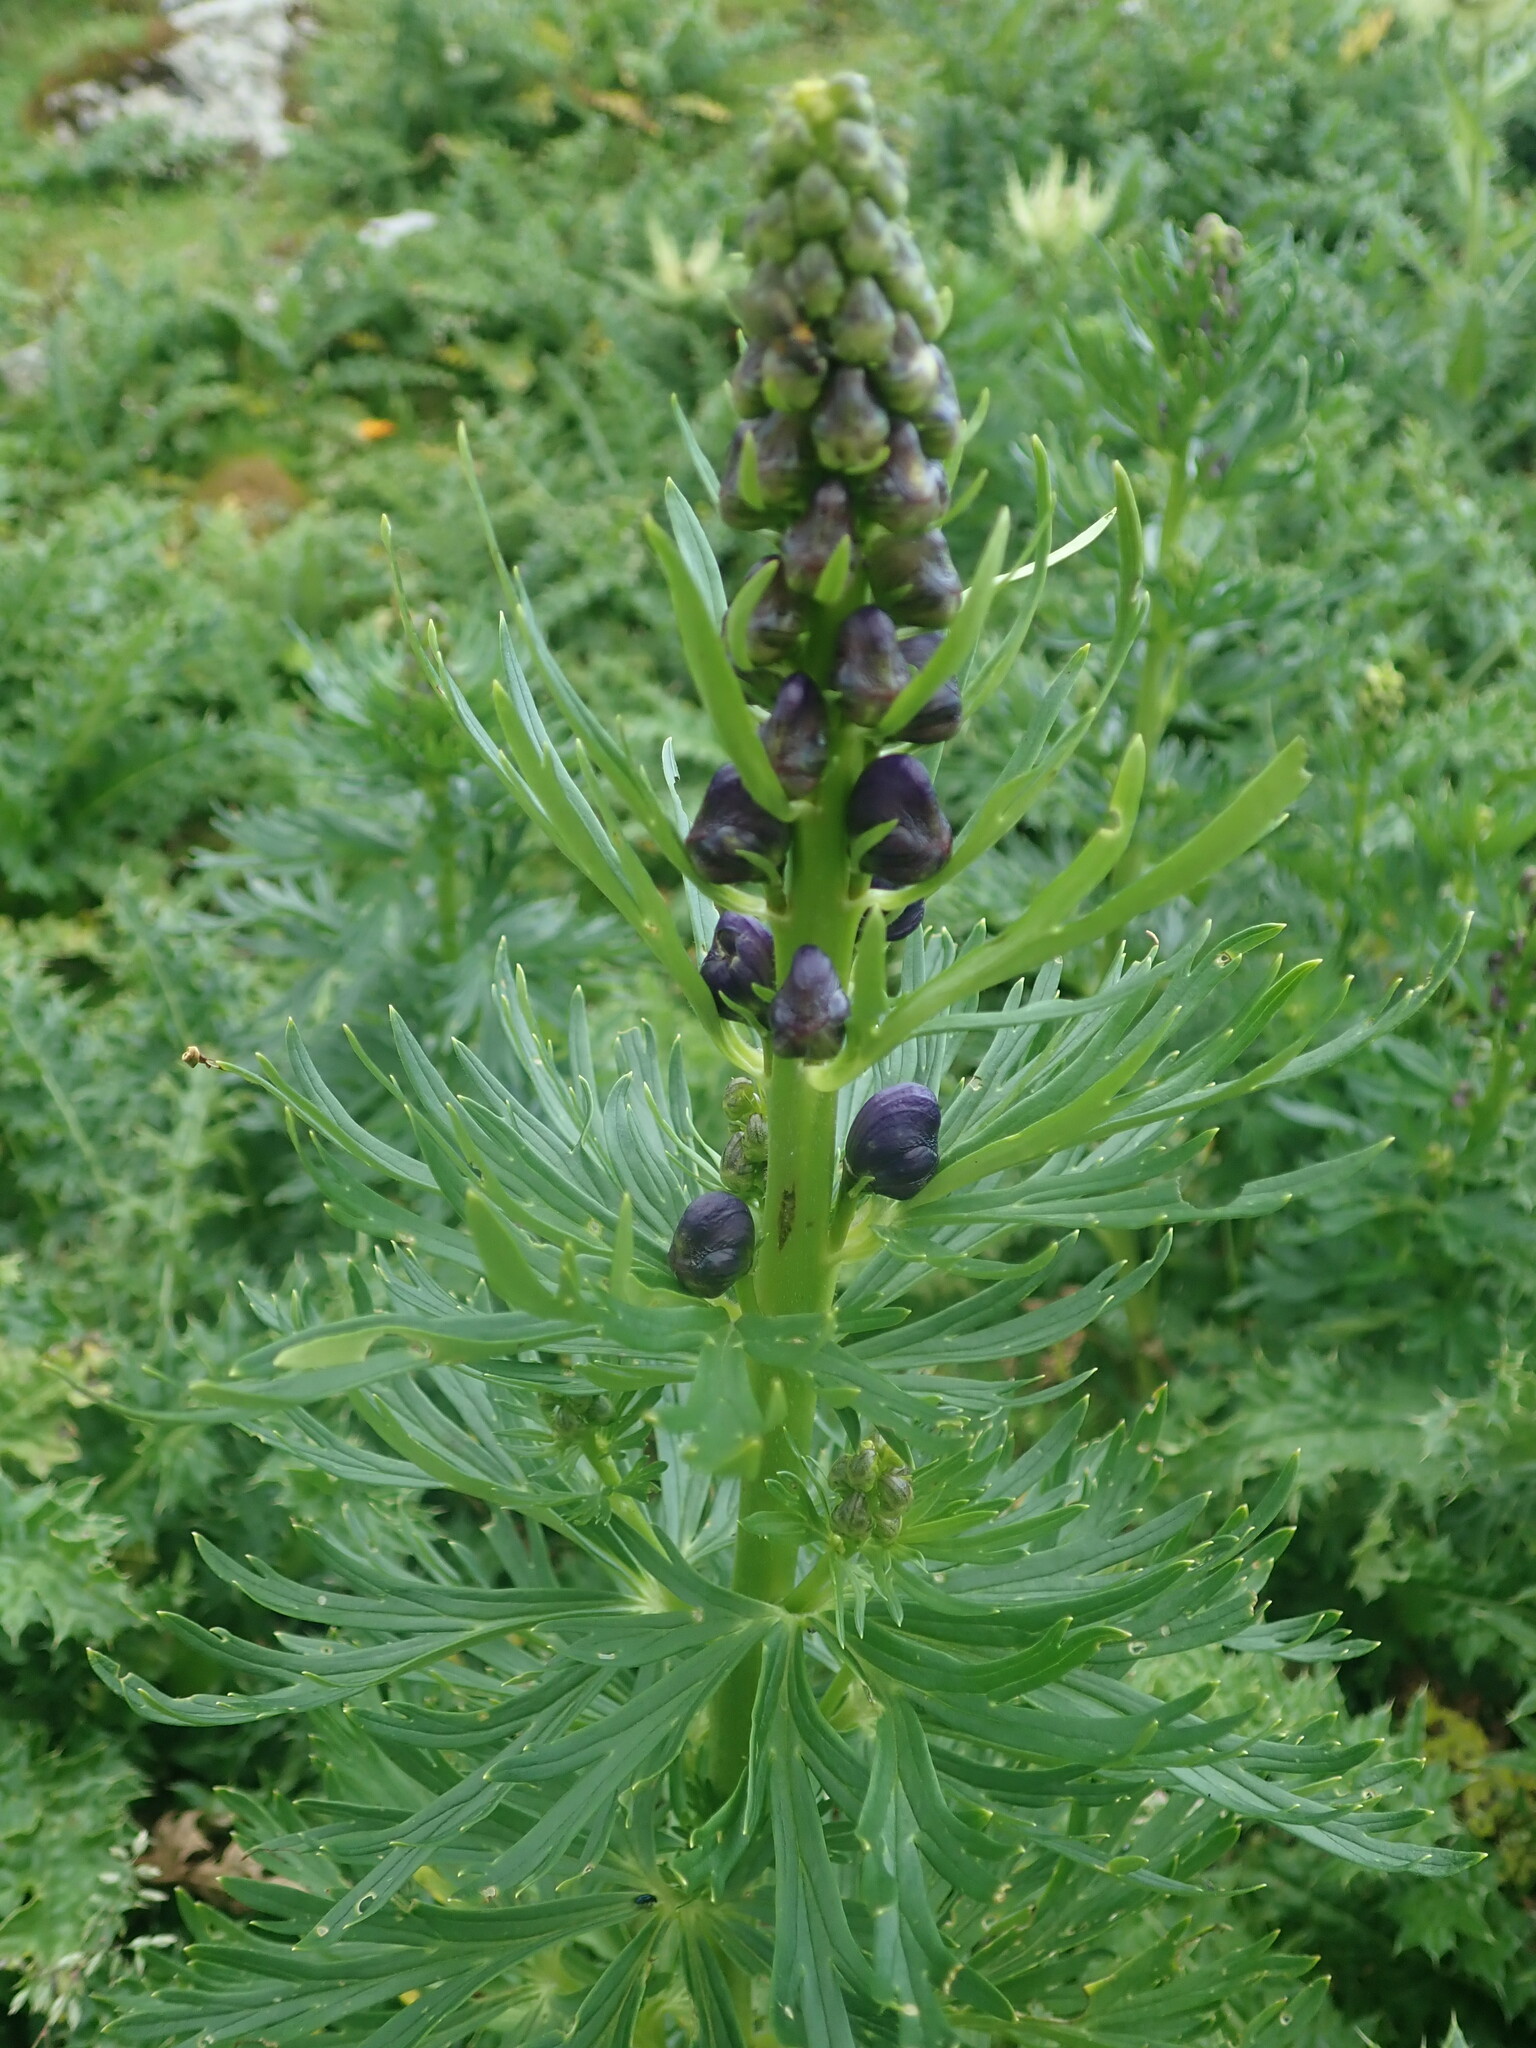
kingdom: Plantae
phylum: Tracheophyta
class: Magnoliopsida
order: Ranunculales
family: Ranunculaceae
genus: Aconitum
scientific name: Aconitum tauricum
